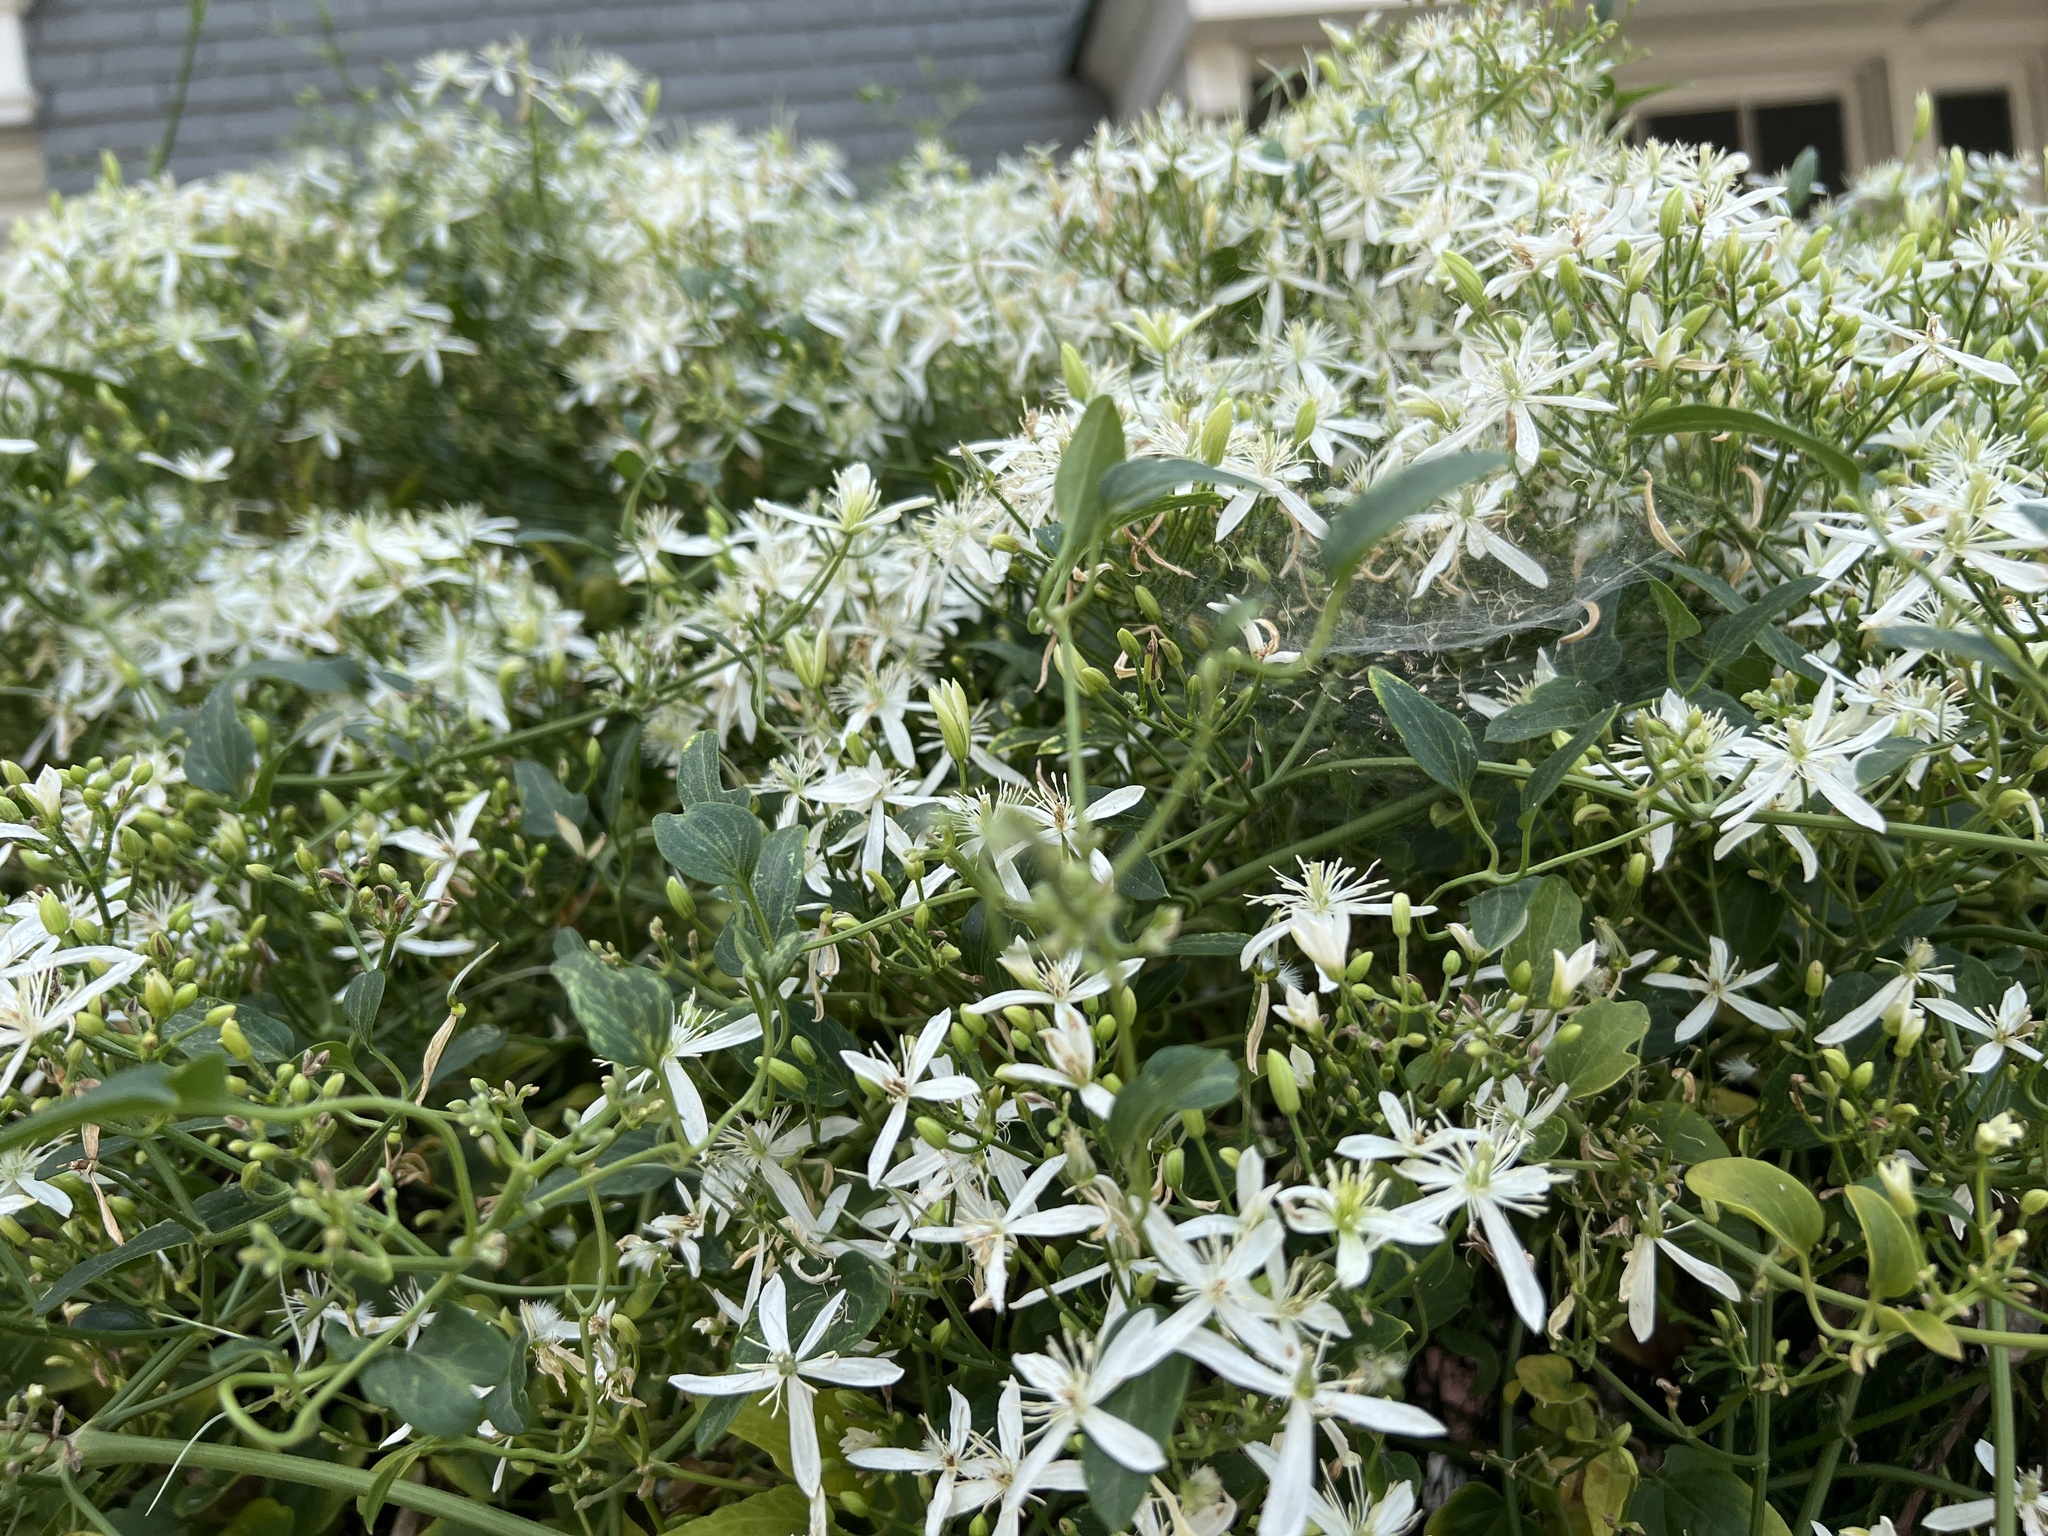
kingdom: Plantae
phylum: Tracheophyta
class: Magnoliopsida
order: Ranunculales
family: Ranunculaceae
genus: Clematis
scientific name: Clematis terniflora
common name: Sweet autumn clematis
